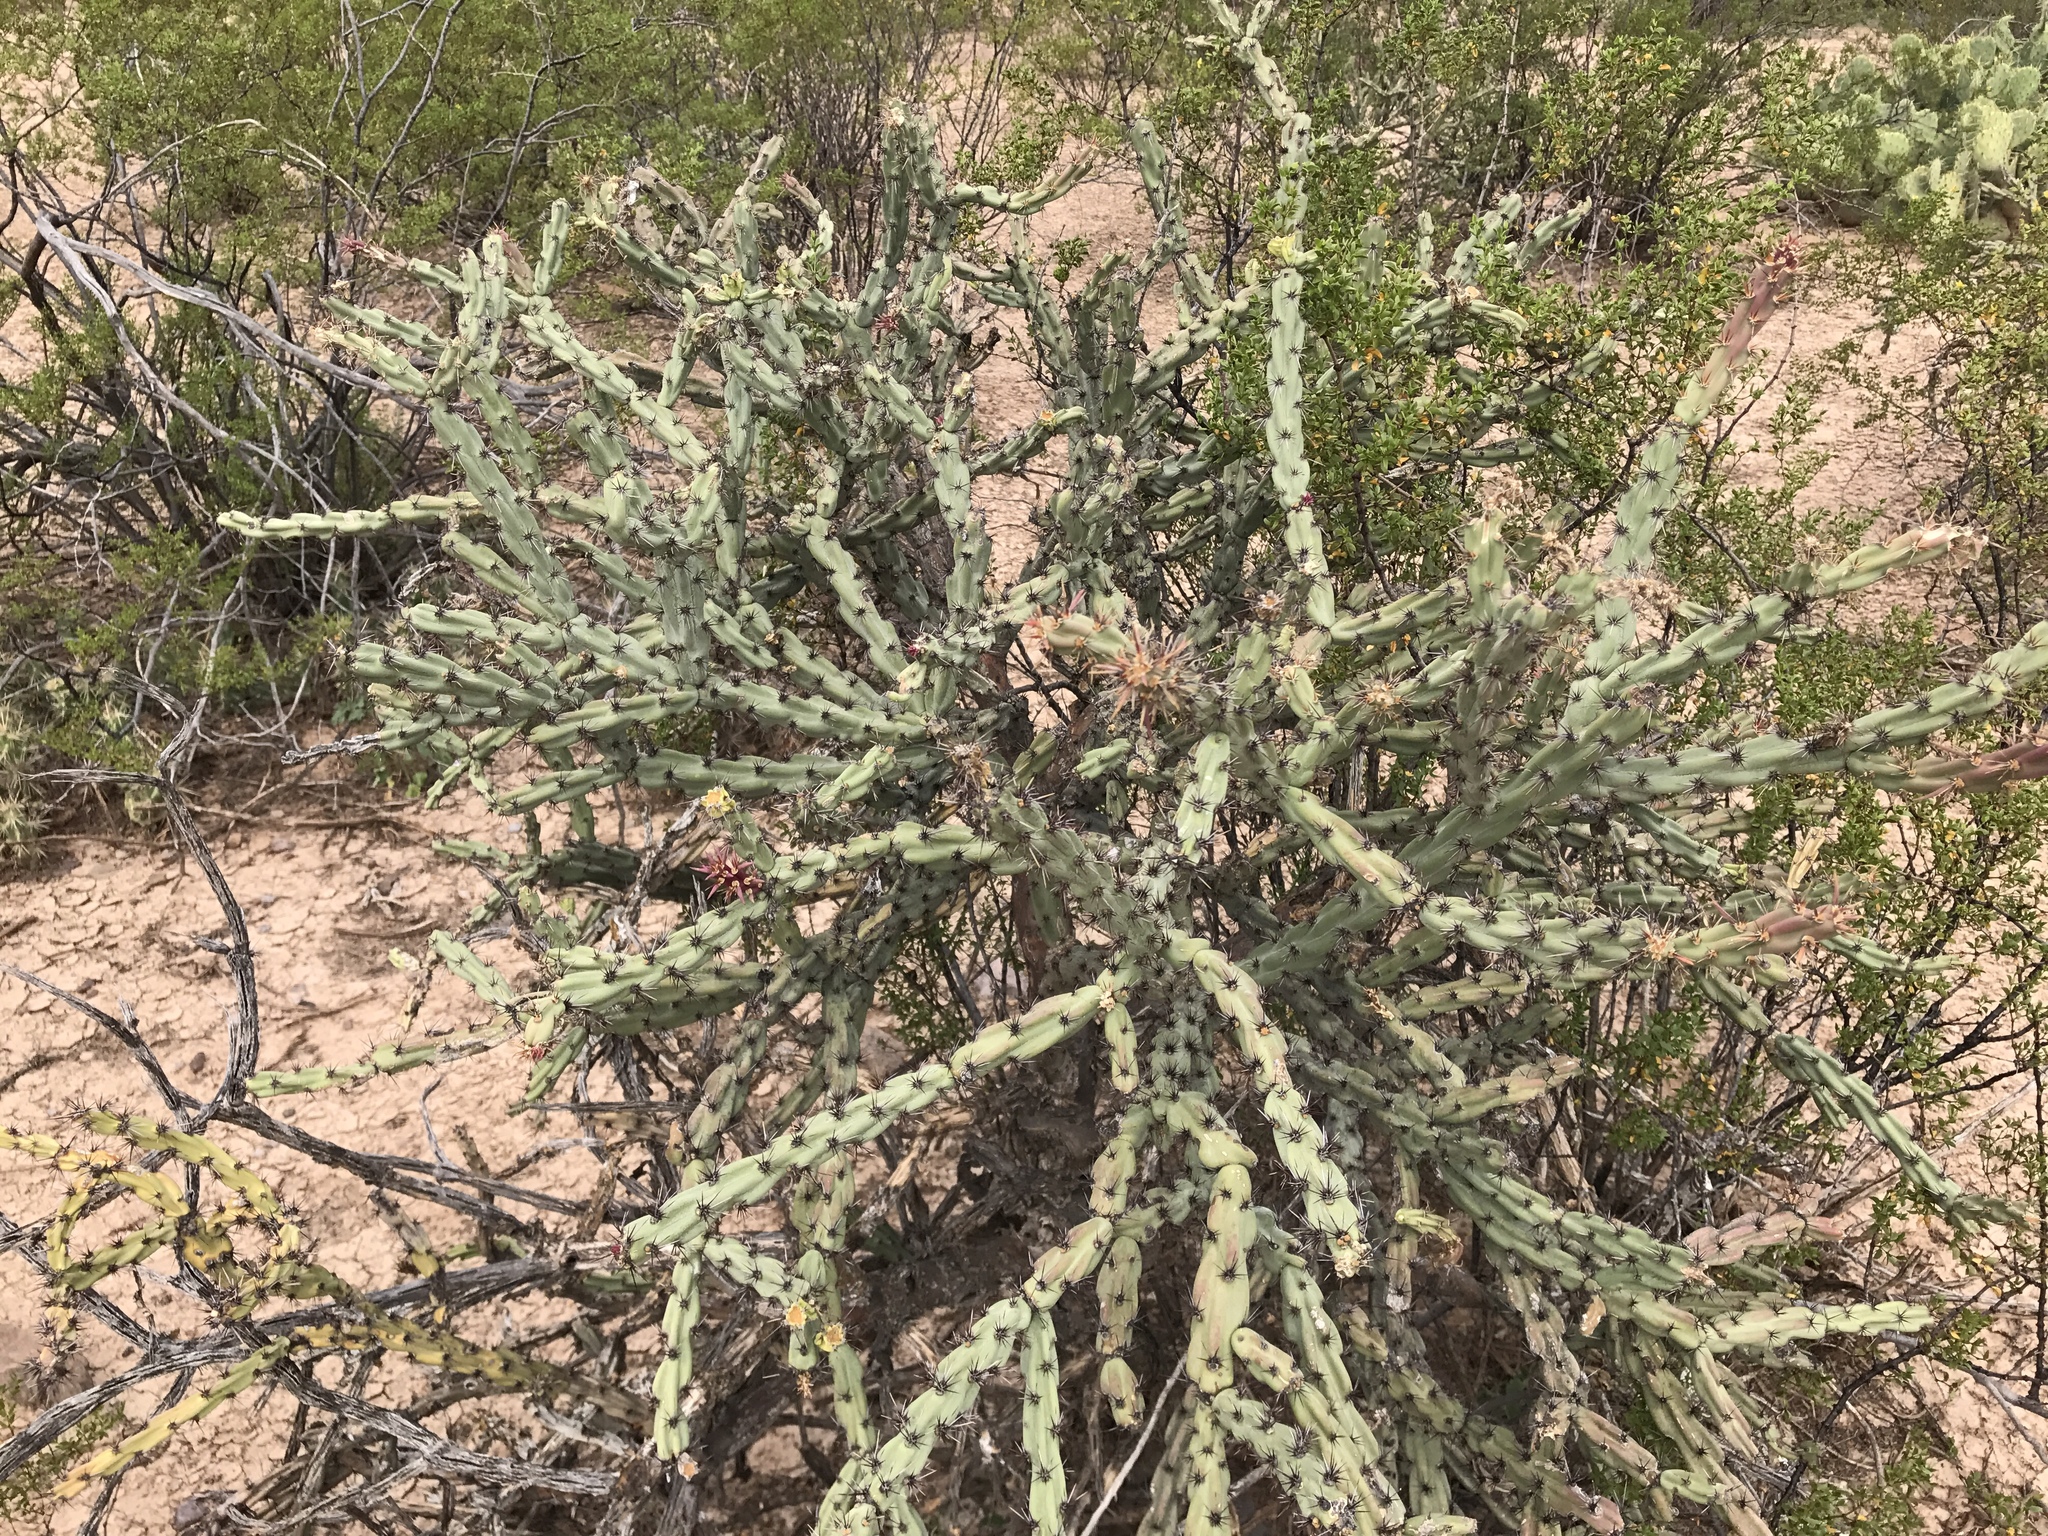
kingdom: Plantae
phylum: Tracheophyta
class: Magnoliopsida
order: Caryophyllales
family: Cactaceae
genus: Cylindropuntia
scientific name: Cylindropuntia acanthocarpa
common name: Buckhorn cholla
